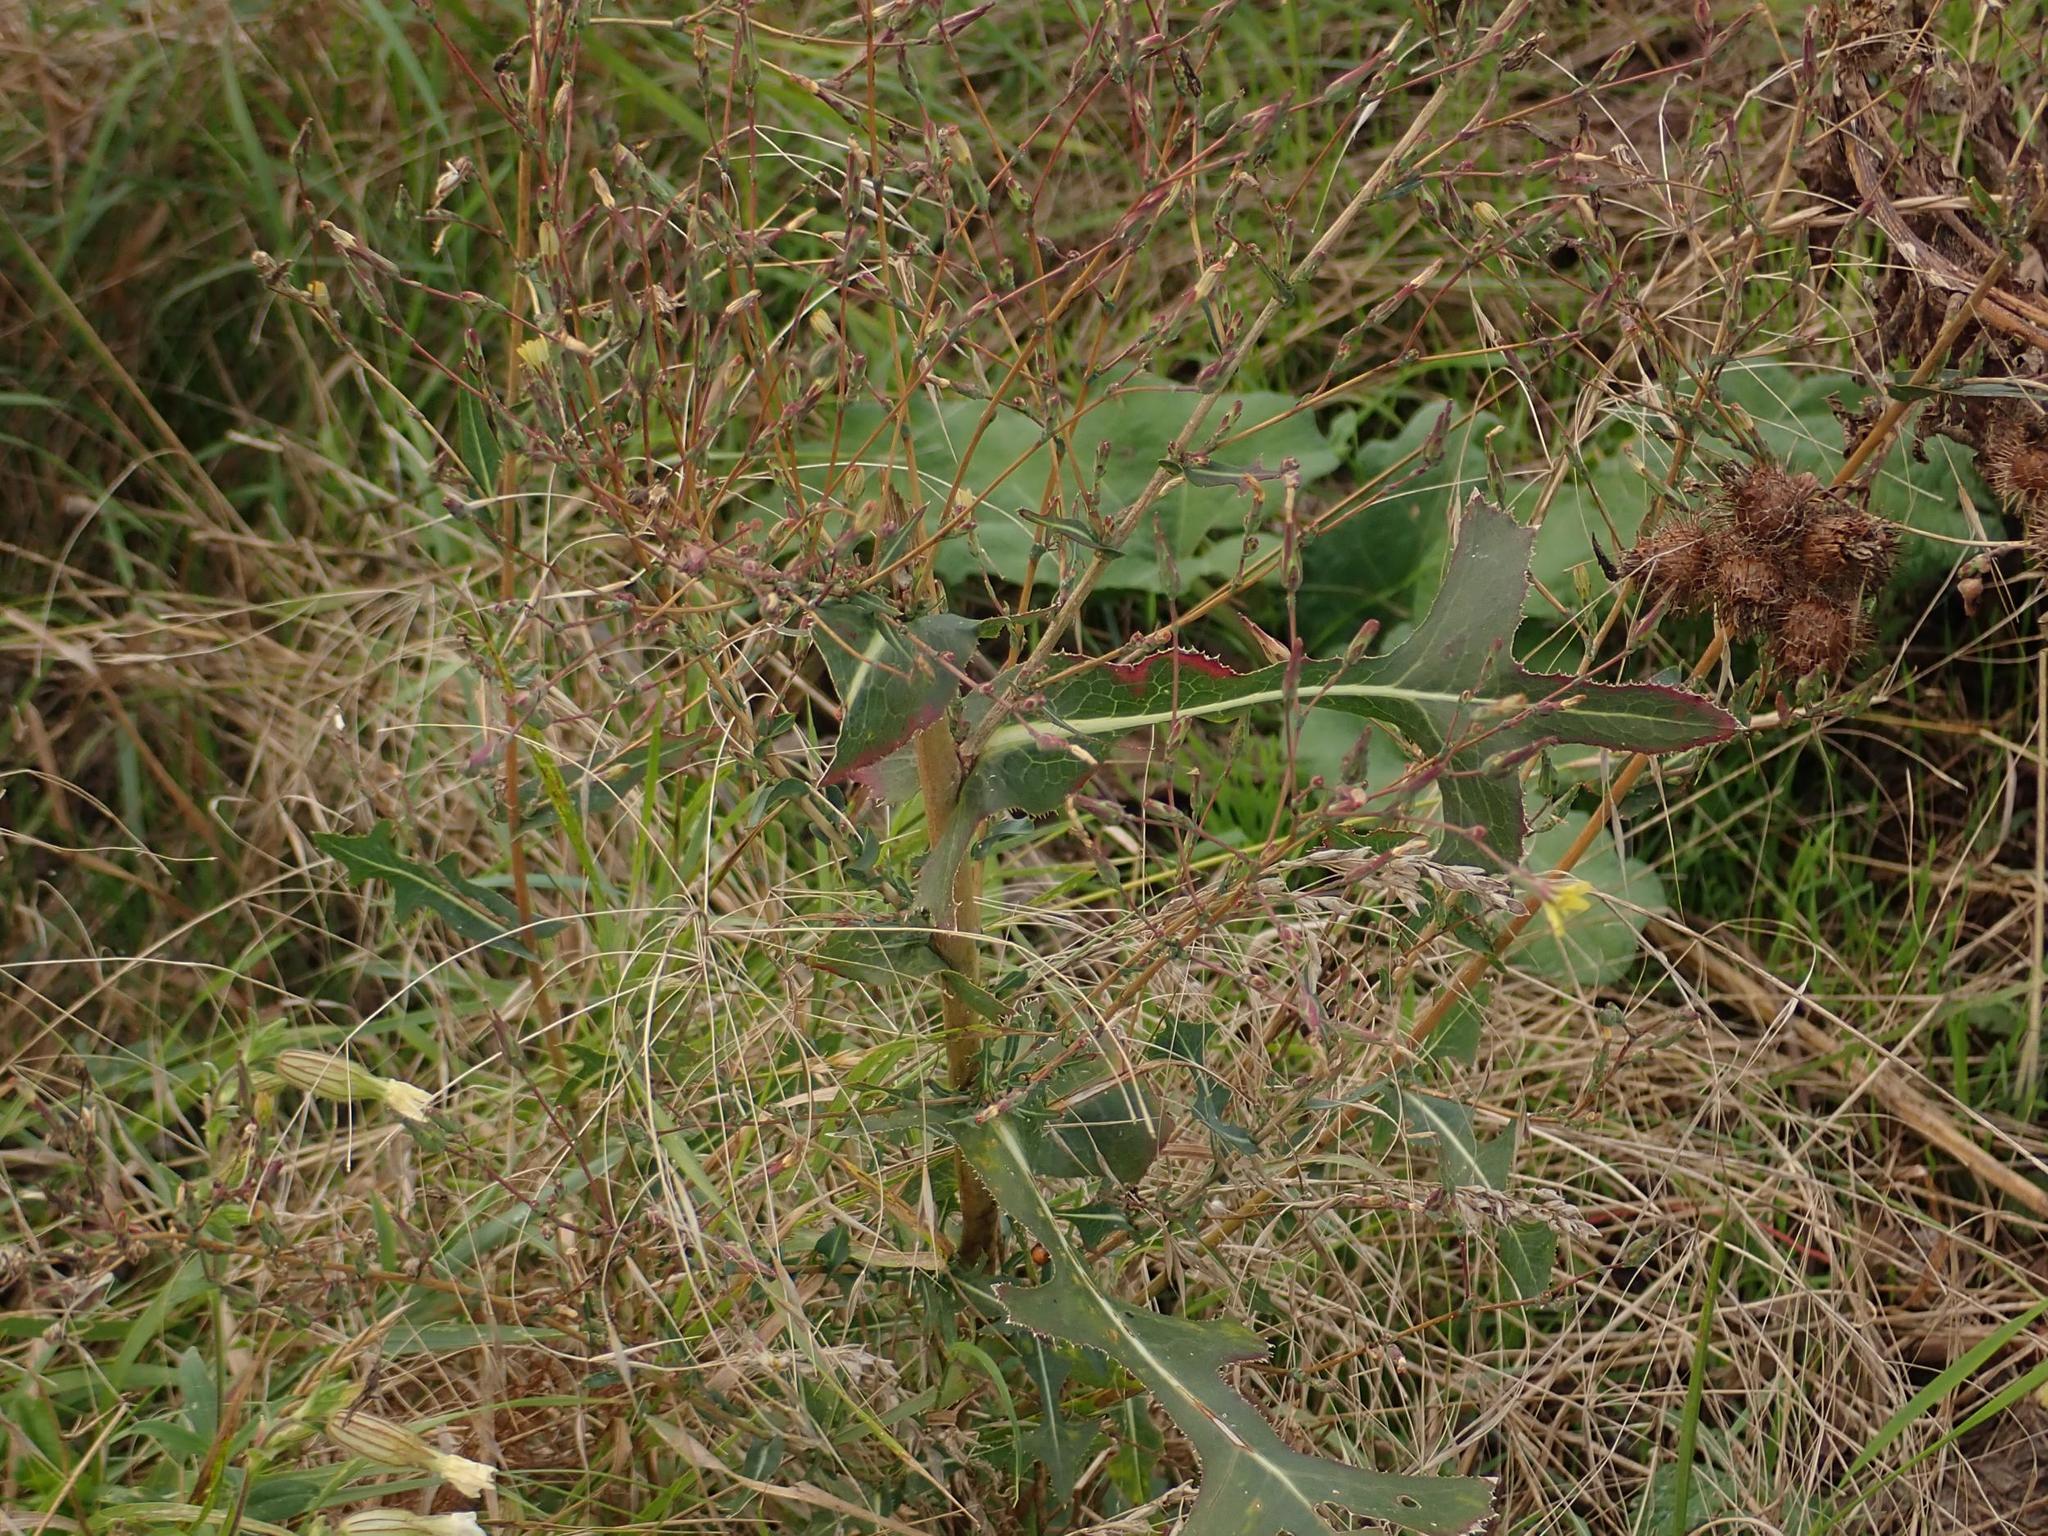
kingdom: Plantae
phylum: Tracheophyta
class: Magnoliopsida
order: Asterales
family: Asteraceae
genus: Lactuca
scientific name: Lactuca serriola
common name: Prickly lettuce
